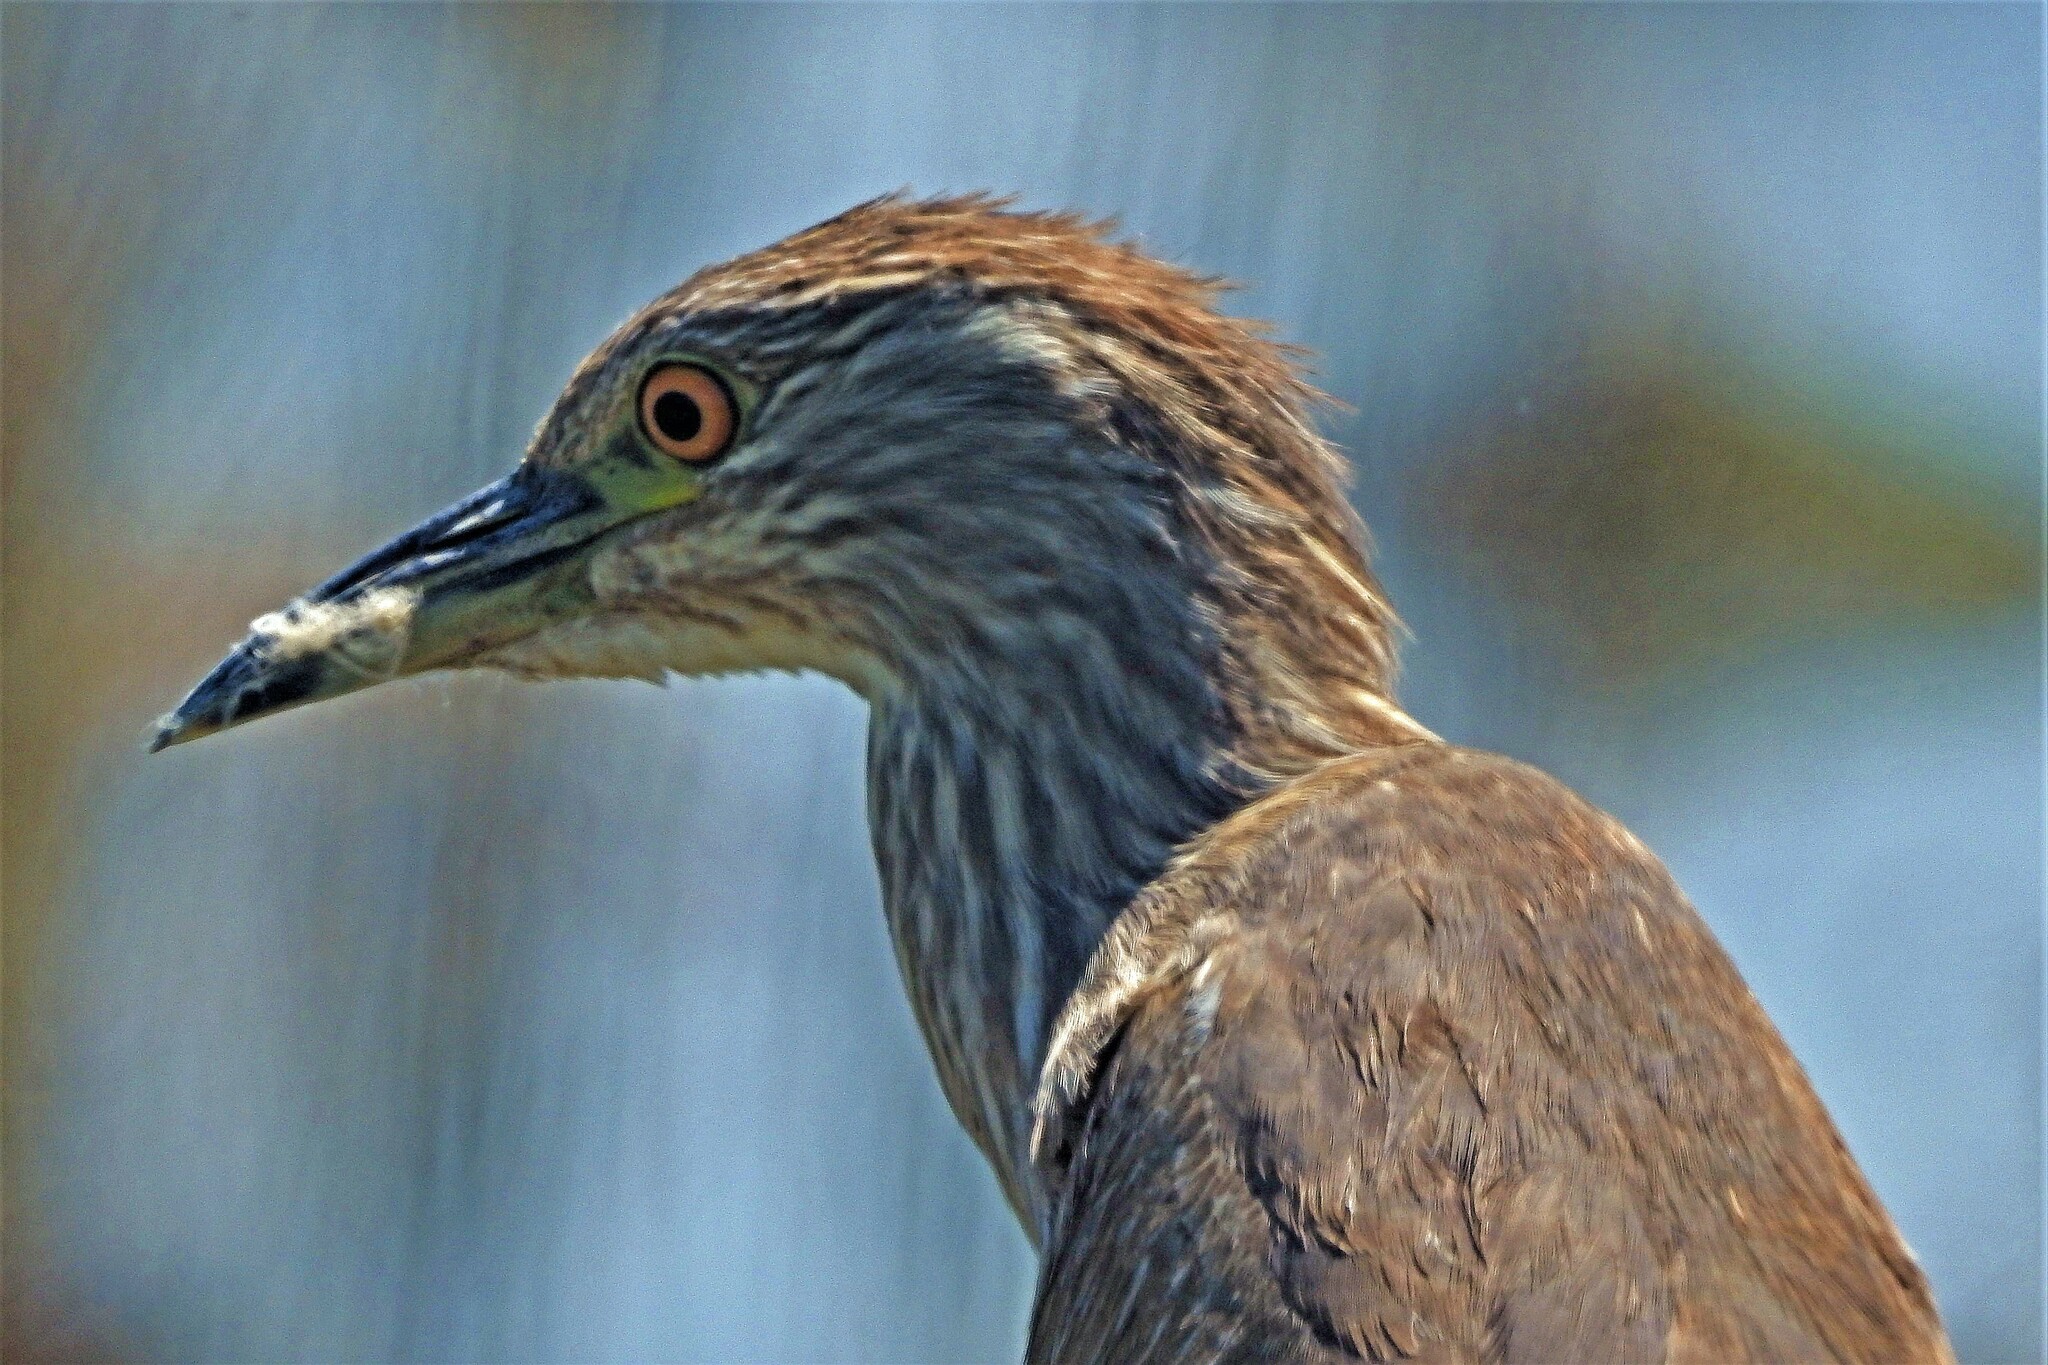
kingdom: Animalia
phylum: Chordata
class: Aves
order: Pelecaniformes
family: Ardeidae
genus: Nycticorax
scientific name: Nycticorax nycticorax
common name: Black-crowned night heron
